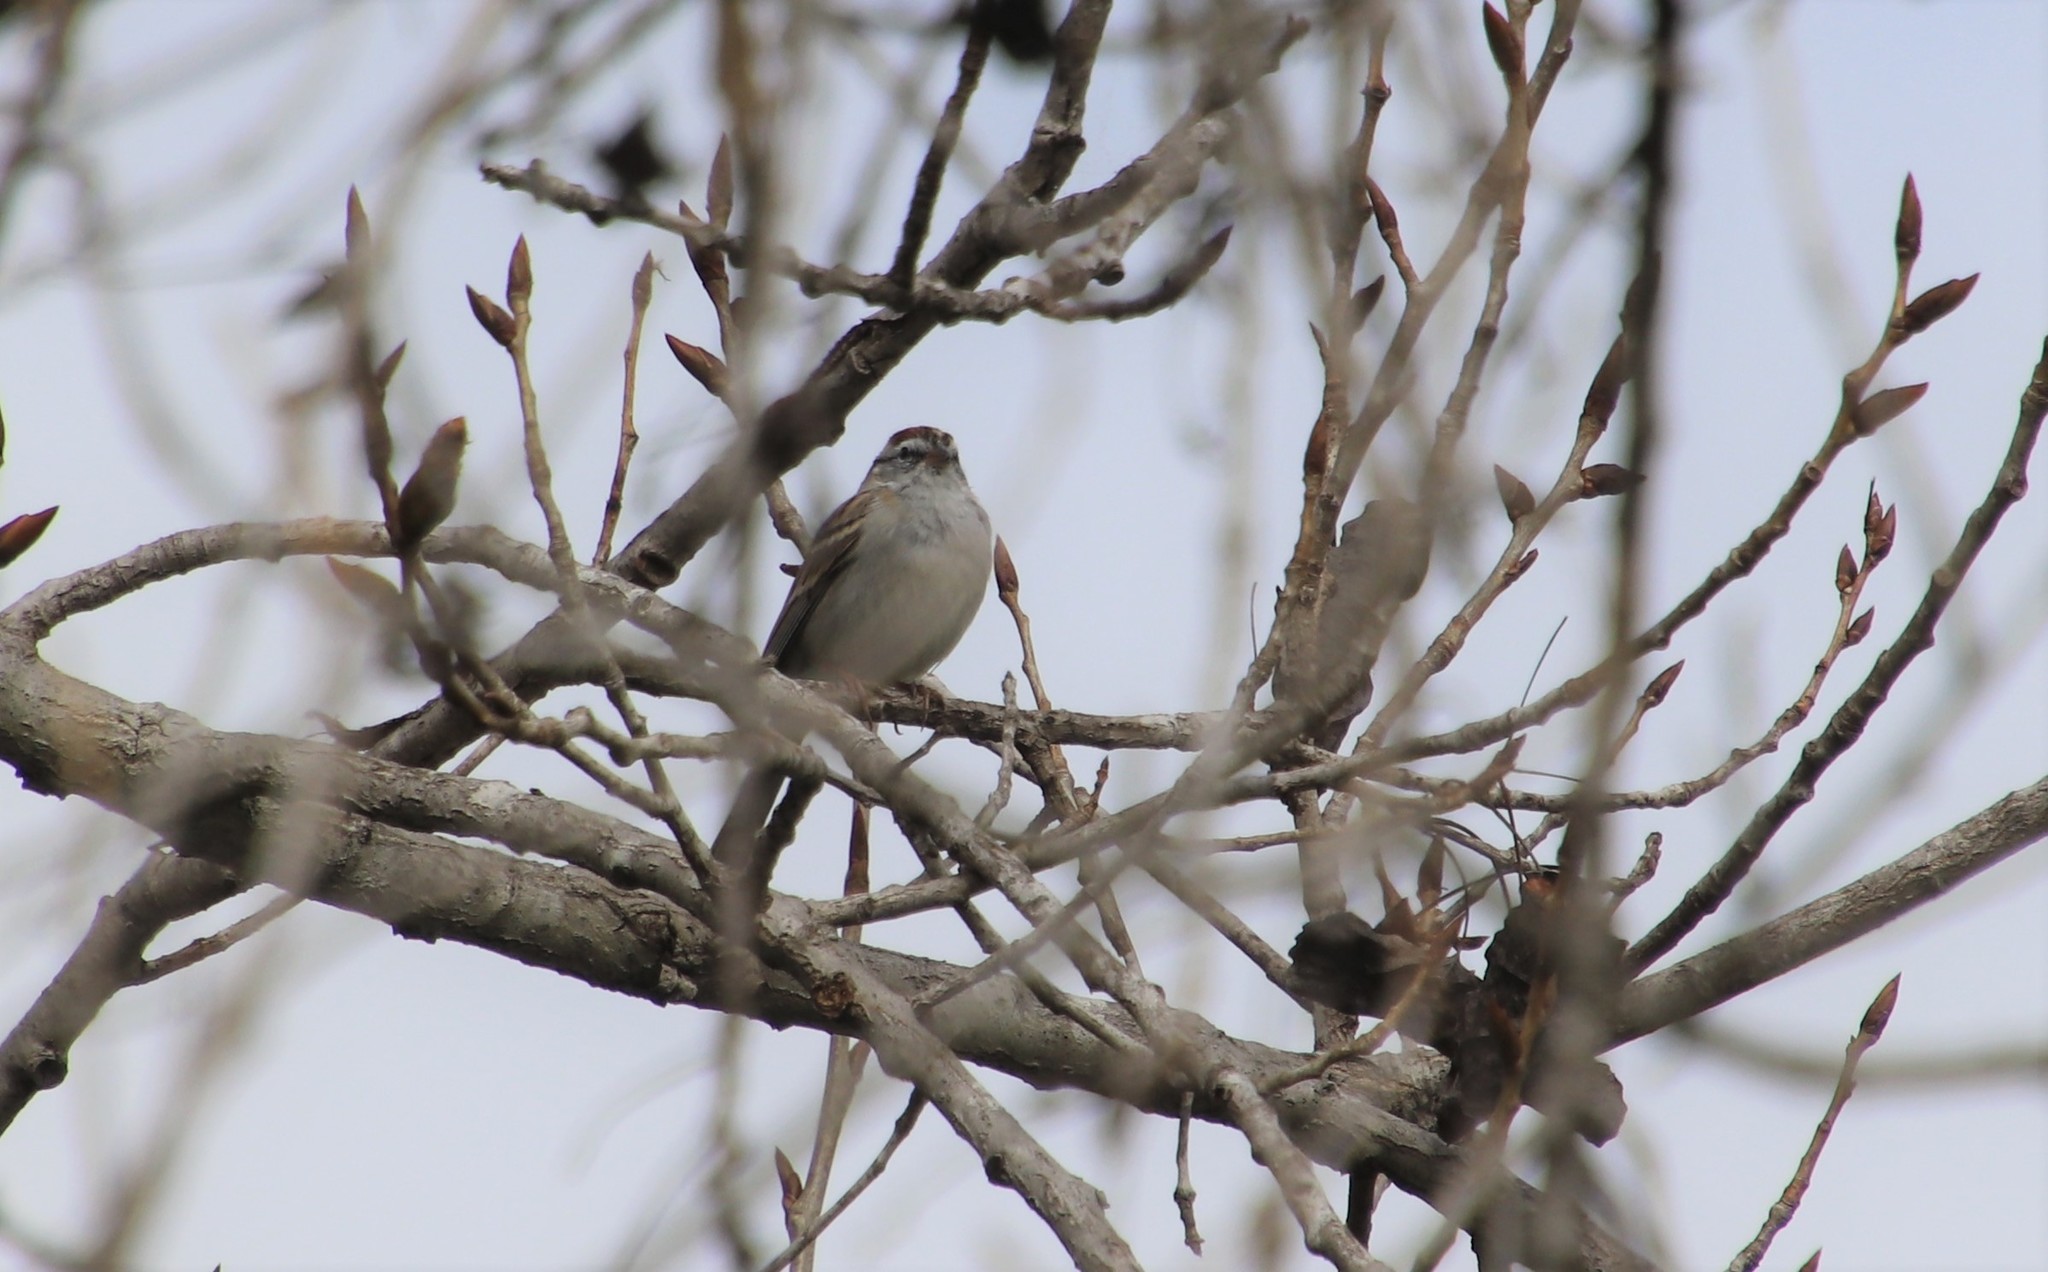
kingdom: Animalia
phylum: Chordata
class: Aves
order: Passeriformes
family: Passerellidae
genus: Spizella
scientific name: Spizella passerina
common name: Chipping sparrow
